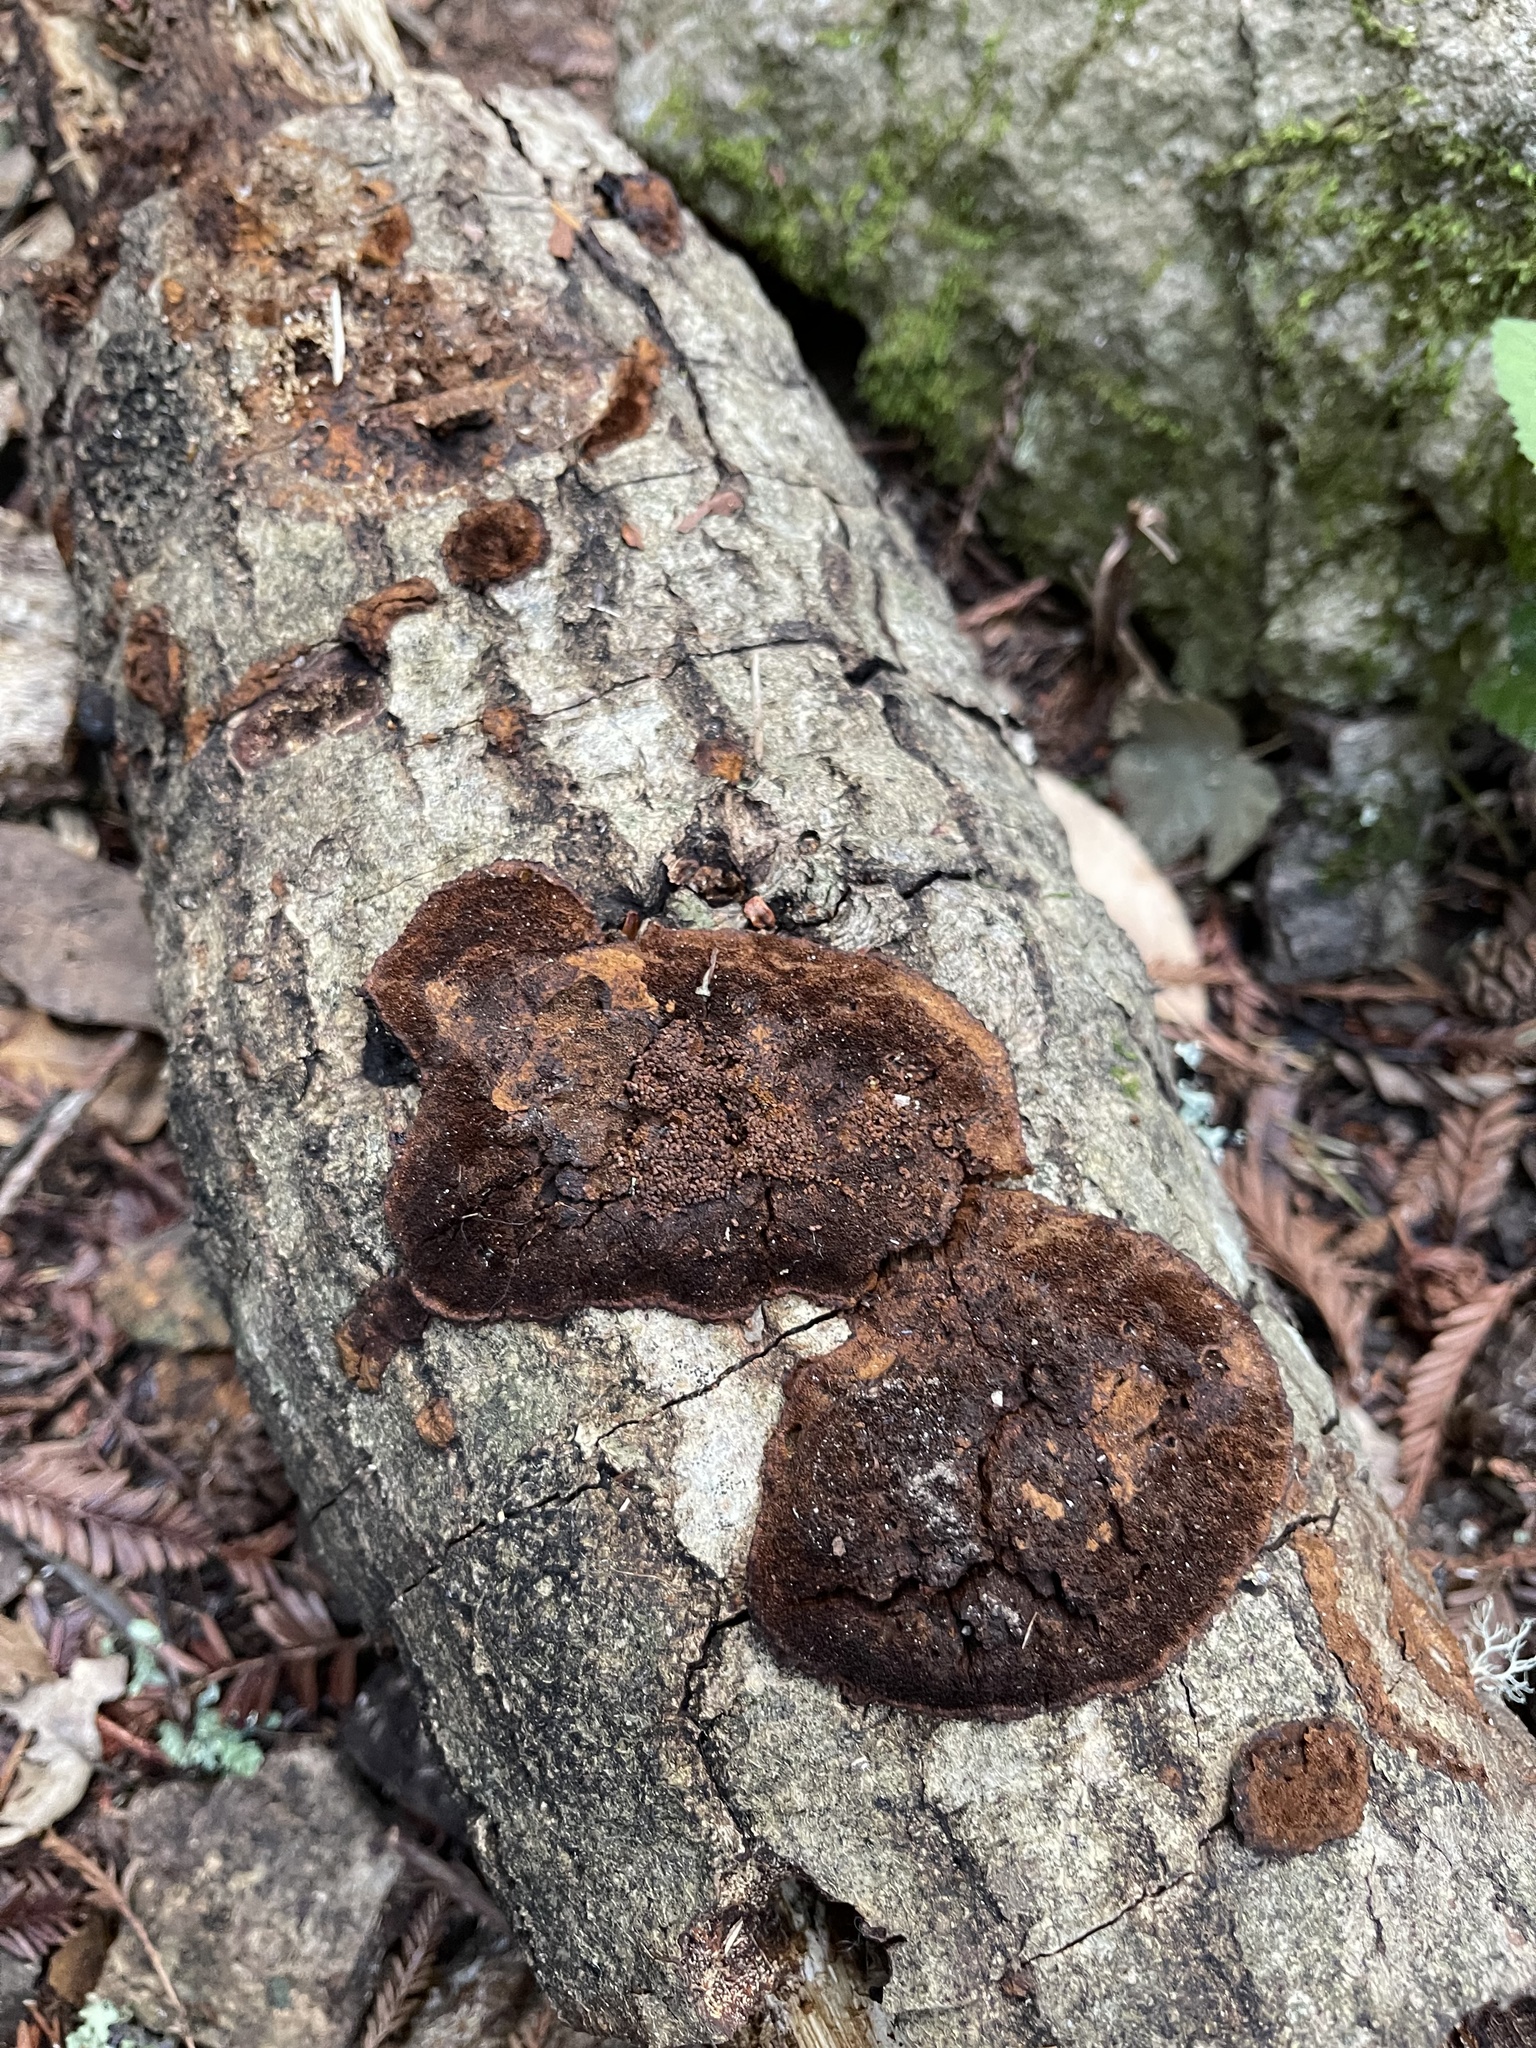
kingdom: Fungi
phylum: Basidiomycota
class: Agaricomycetes
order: Hymenochaetales
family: Hymenochaetaceae
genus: Phellinus
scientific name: Phellinus gilvus
